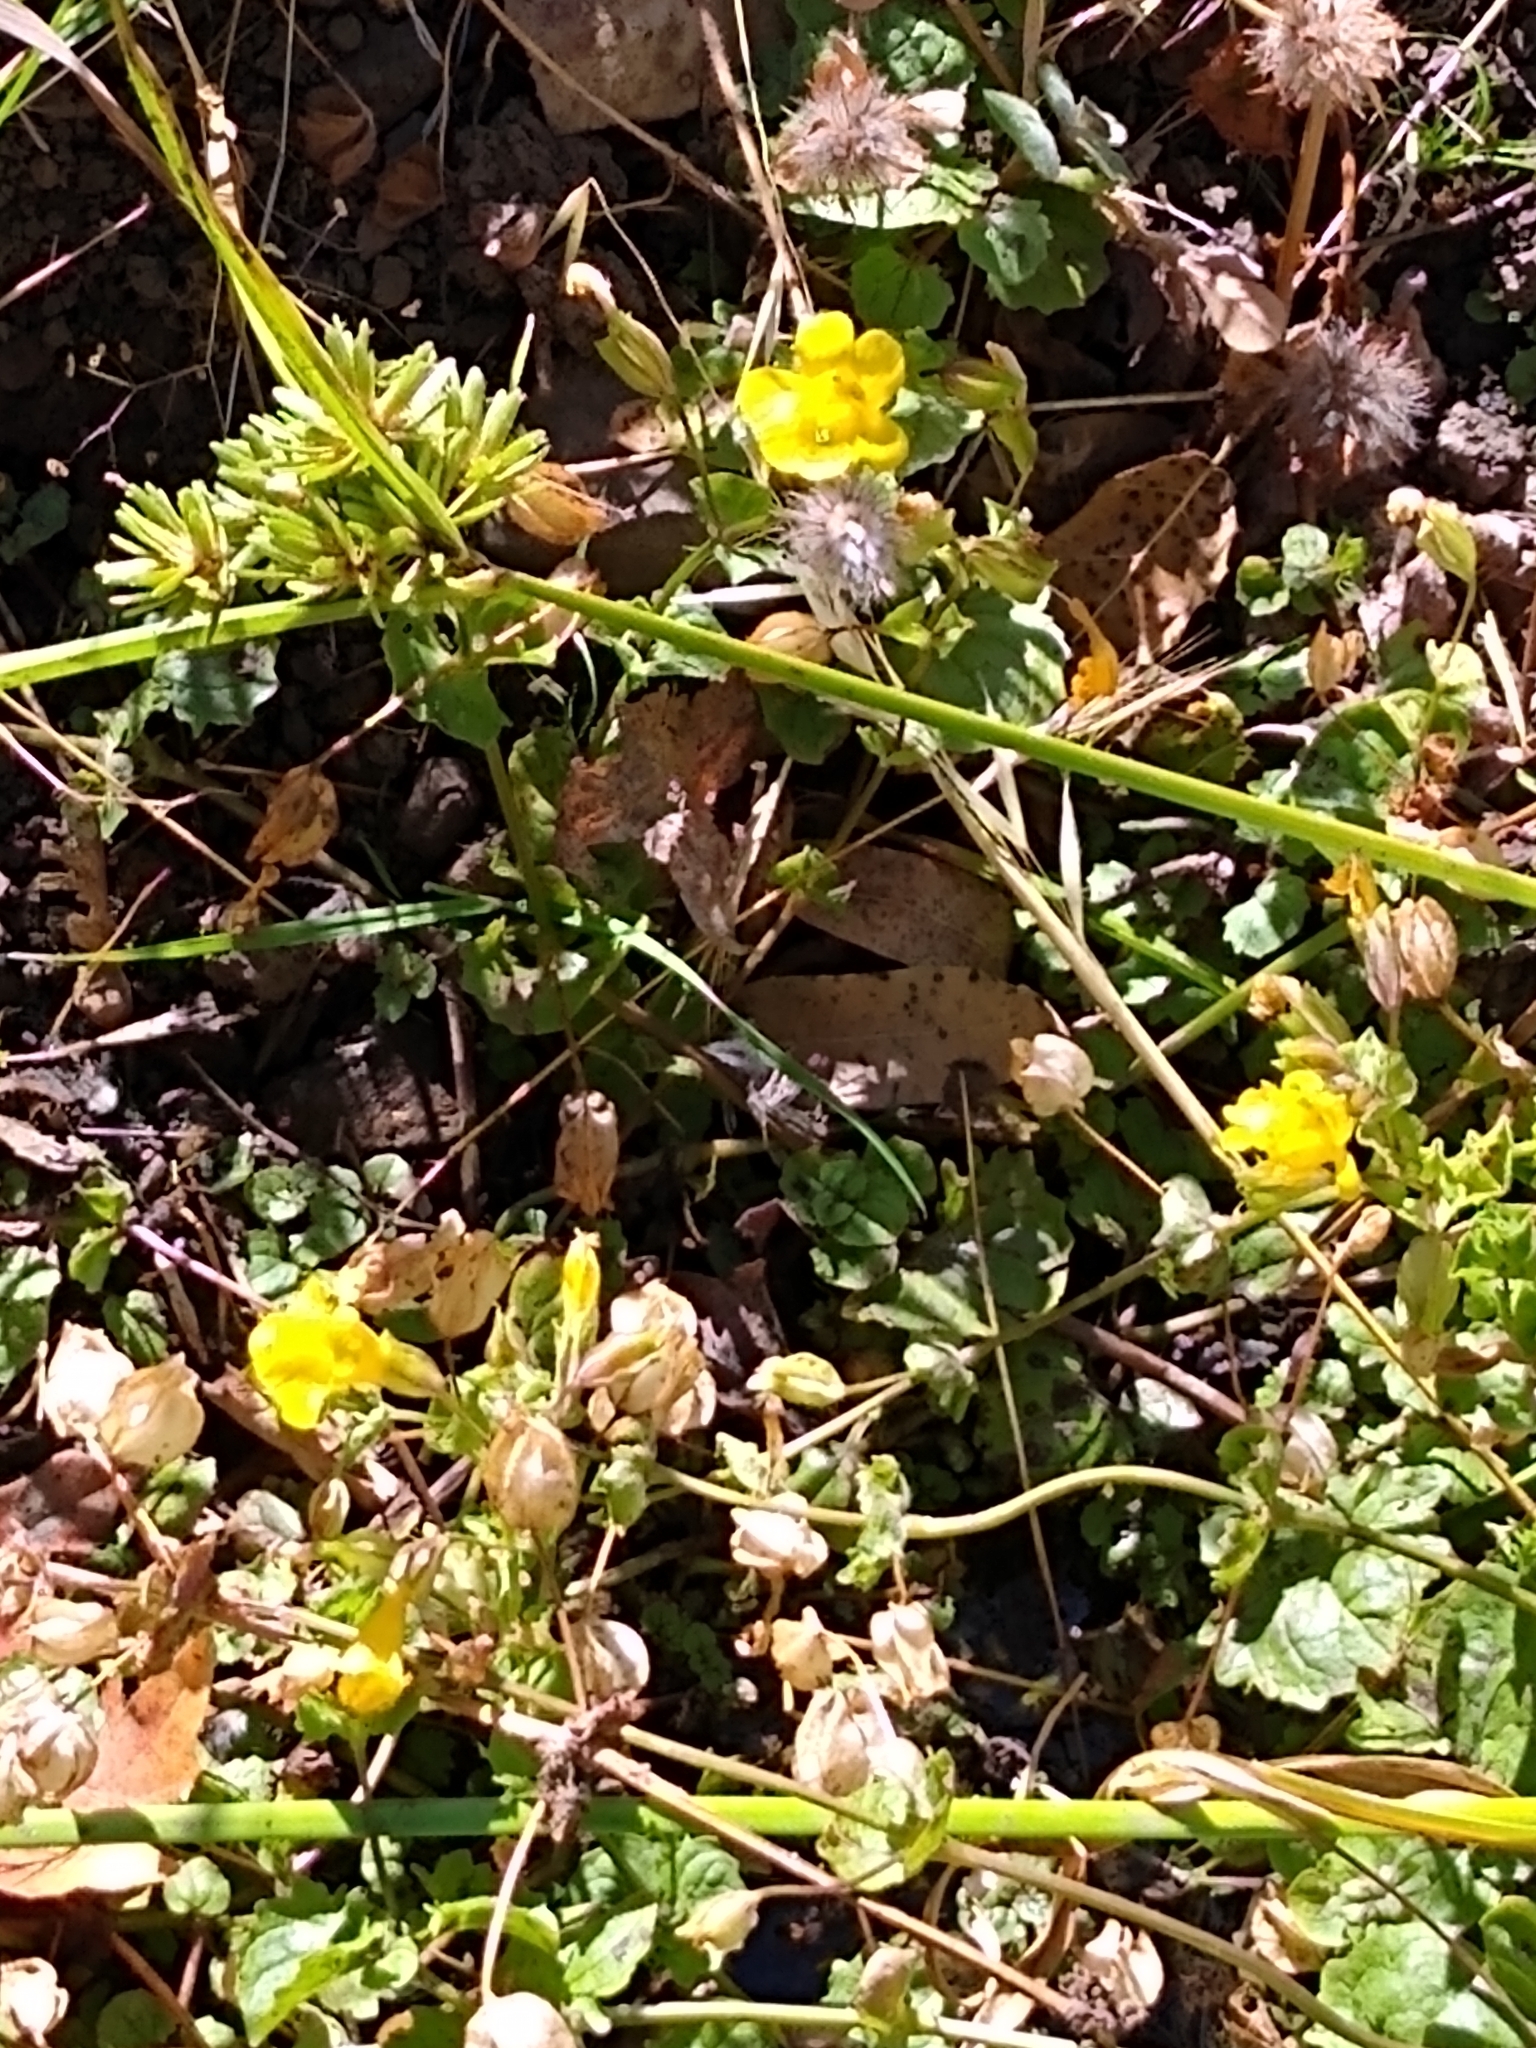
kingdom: Plantae
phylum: Tracheophyta
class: Magnoliopsida
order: Lamiales
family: Phrymaceae
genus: Erythranthe
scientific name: Erythranthe guttata
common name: Monkeyflower
